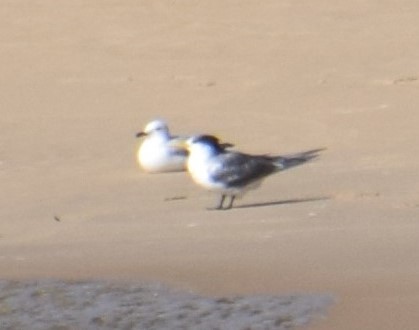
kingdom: Animalia
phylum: Chordata
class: Aves
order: Charadriiformes
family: Laridae
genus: Thalasseus
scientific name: Thalasseus bergii
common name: Greater crested tern
